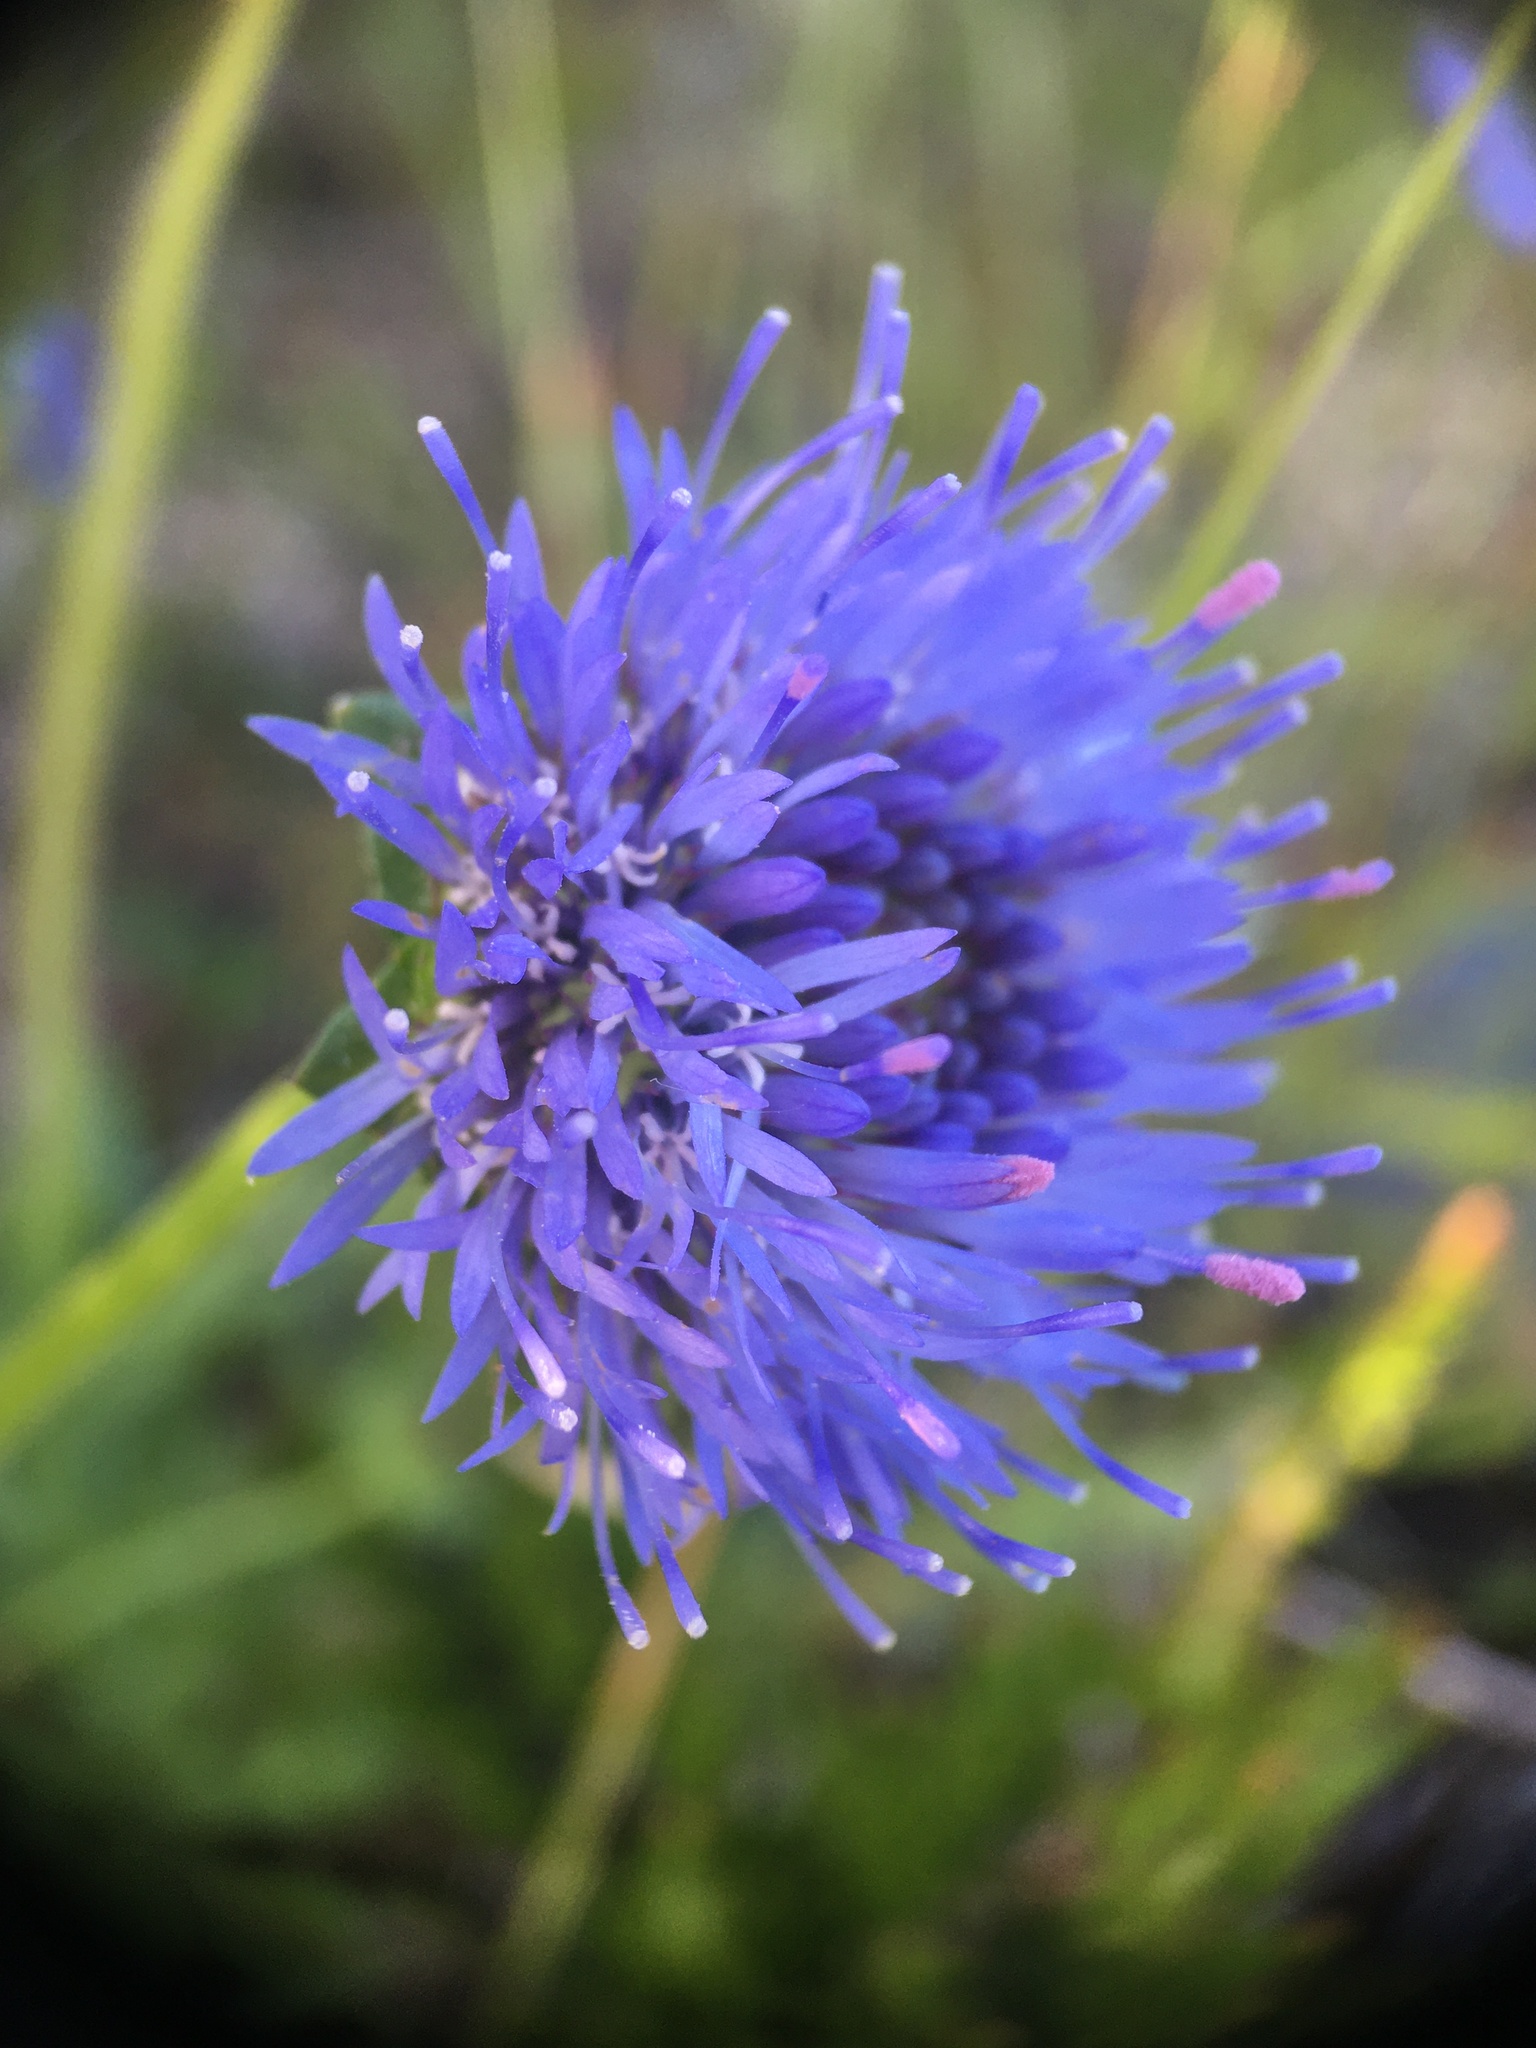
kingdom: Plantae
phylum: Tracheophyta
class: Magnoliopsida
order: Asterales
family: Campanulaceae
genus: Jasione
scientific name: Jasione montana
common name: Sheep's-bit
